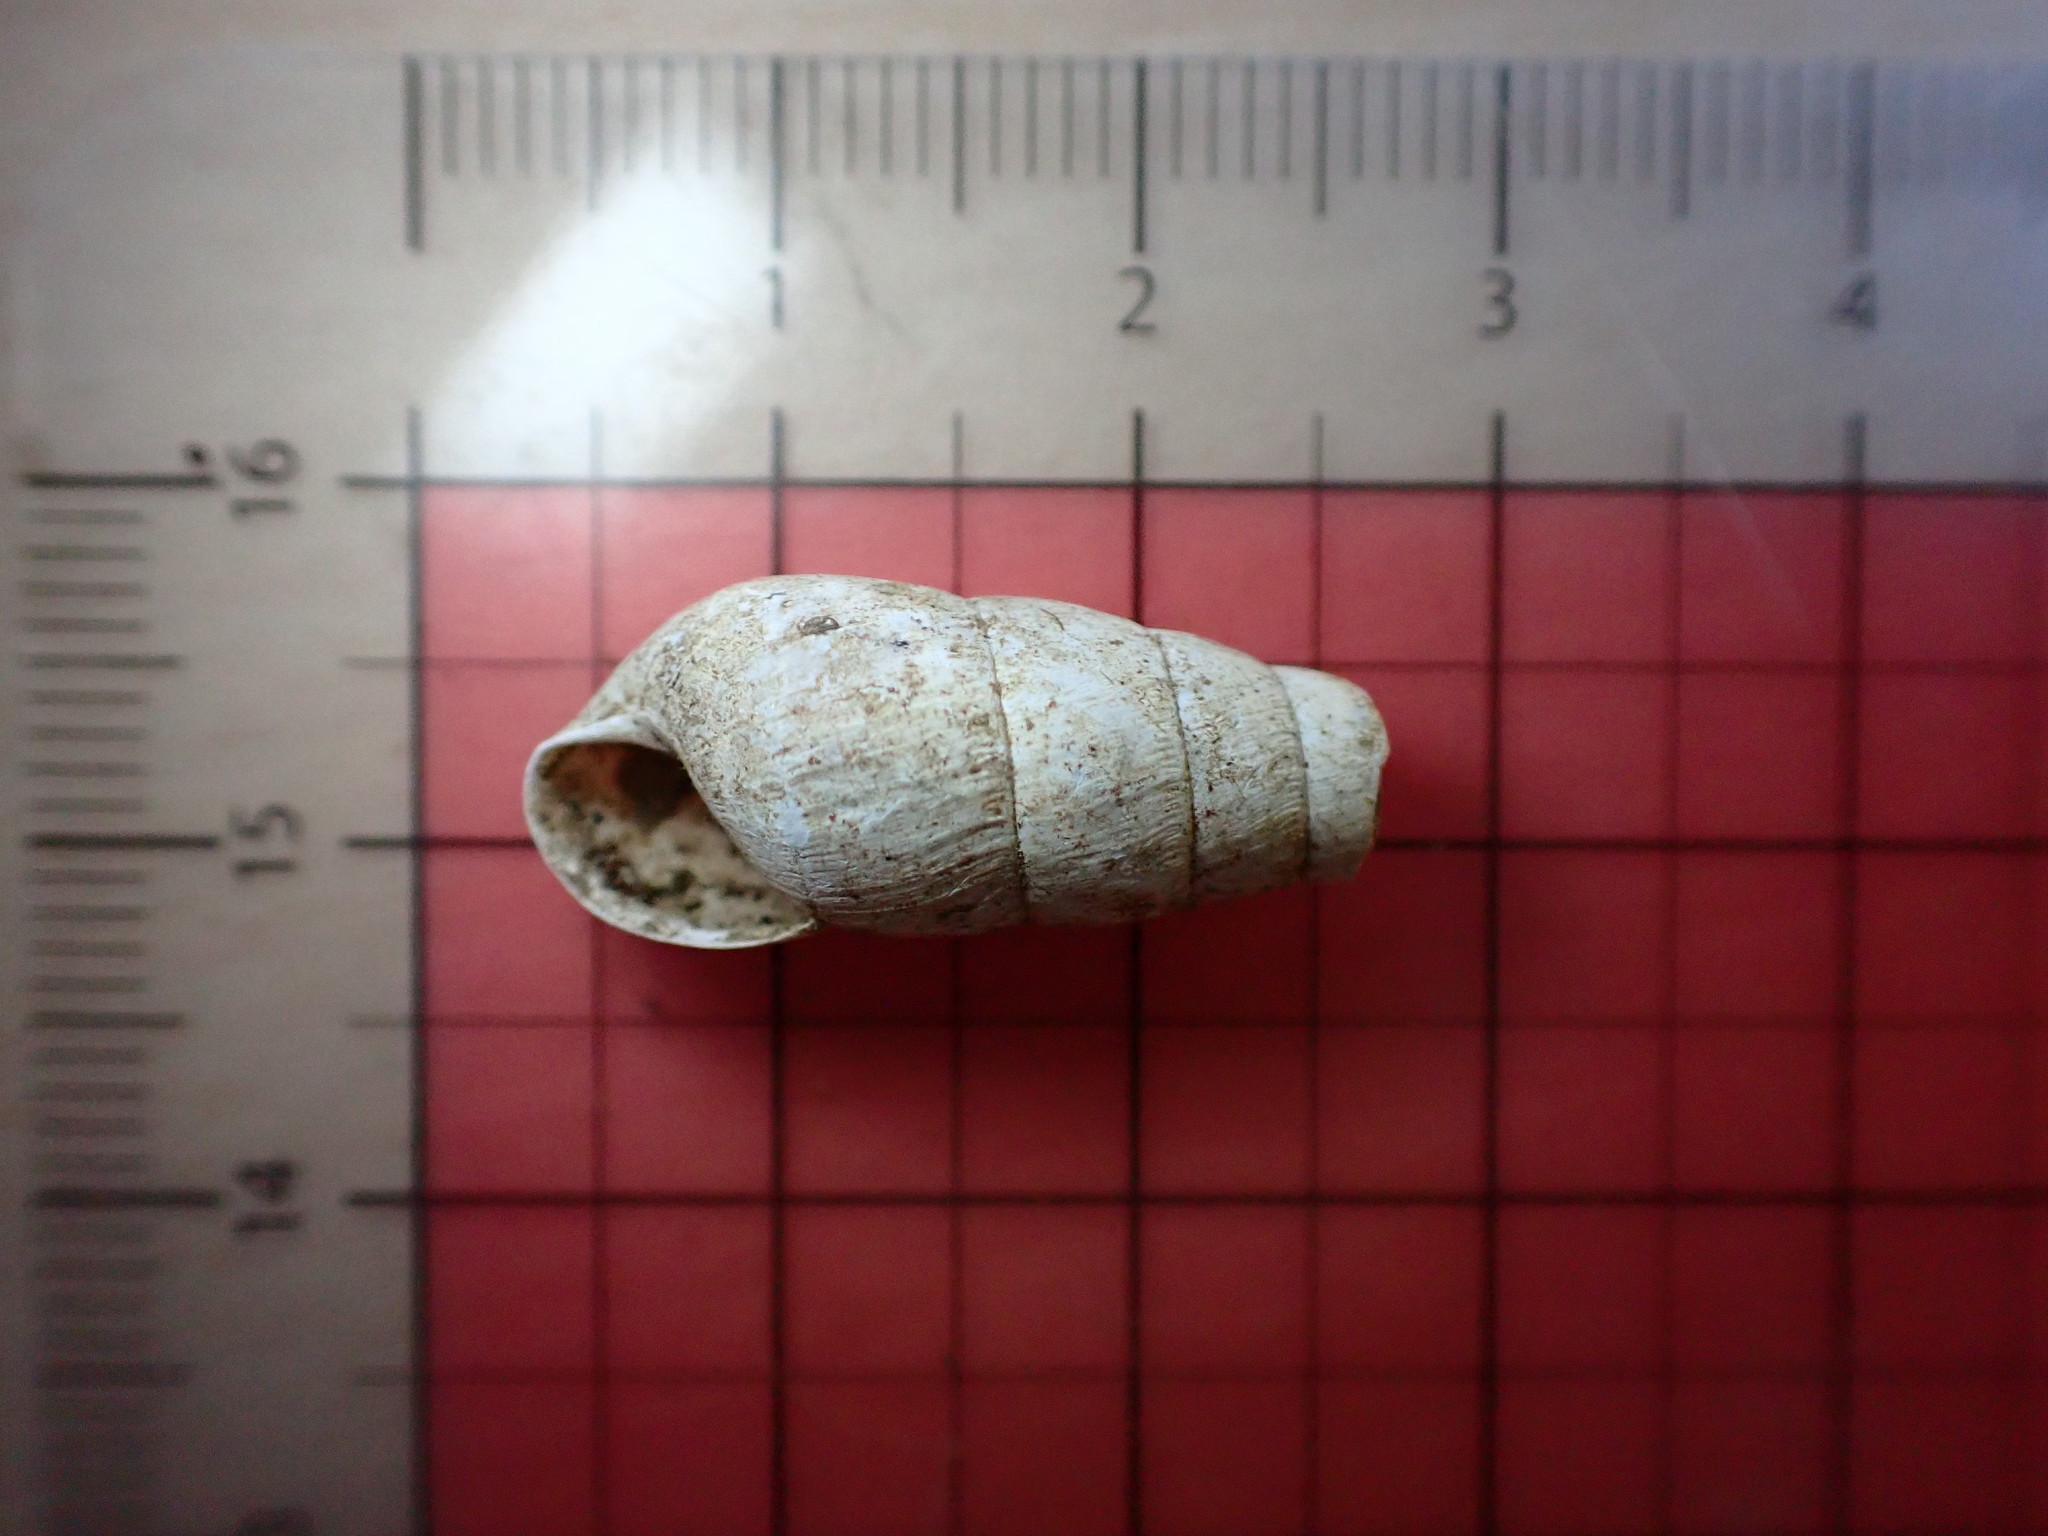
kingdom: Animalia
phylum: Mollusca
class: Gastropoda
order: Stylommatophora
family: Achatinidae
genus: Rumina
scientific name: Rumina decollata
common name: Decollate snail
